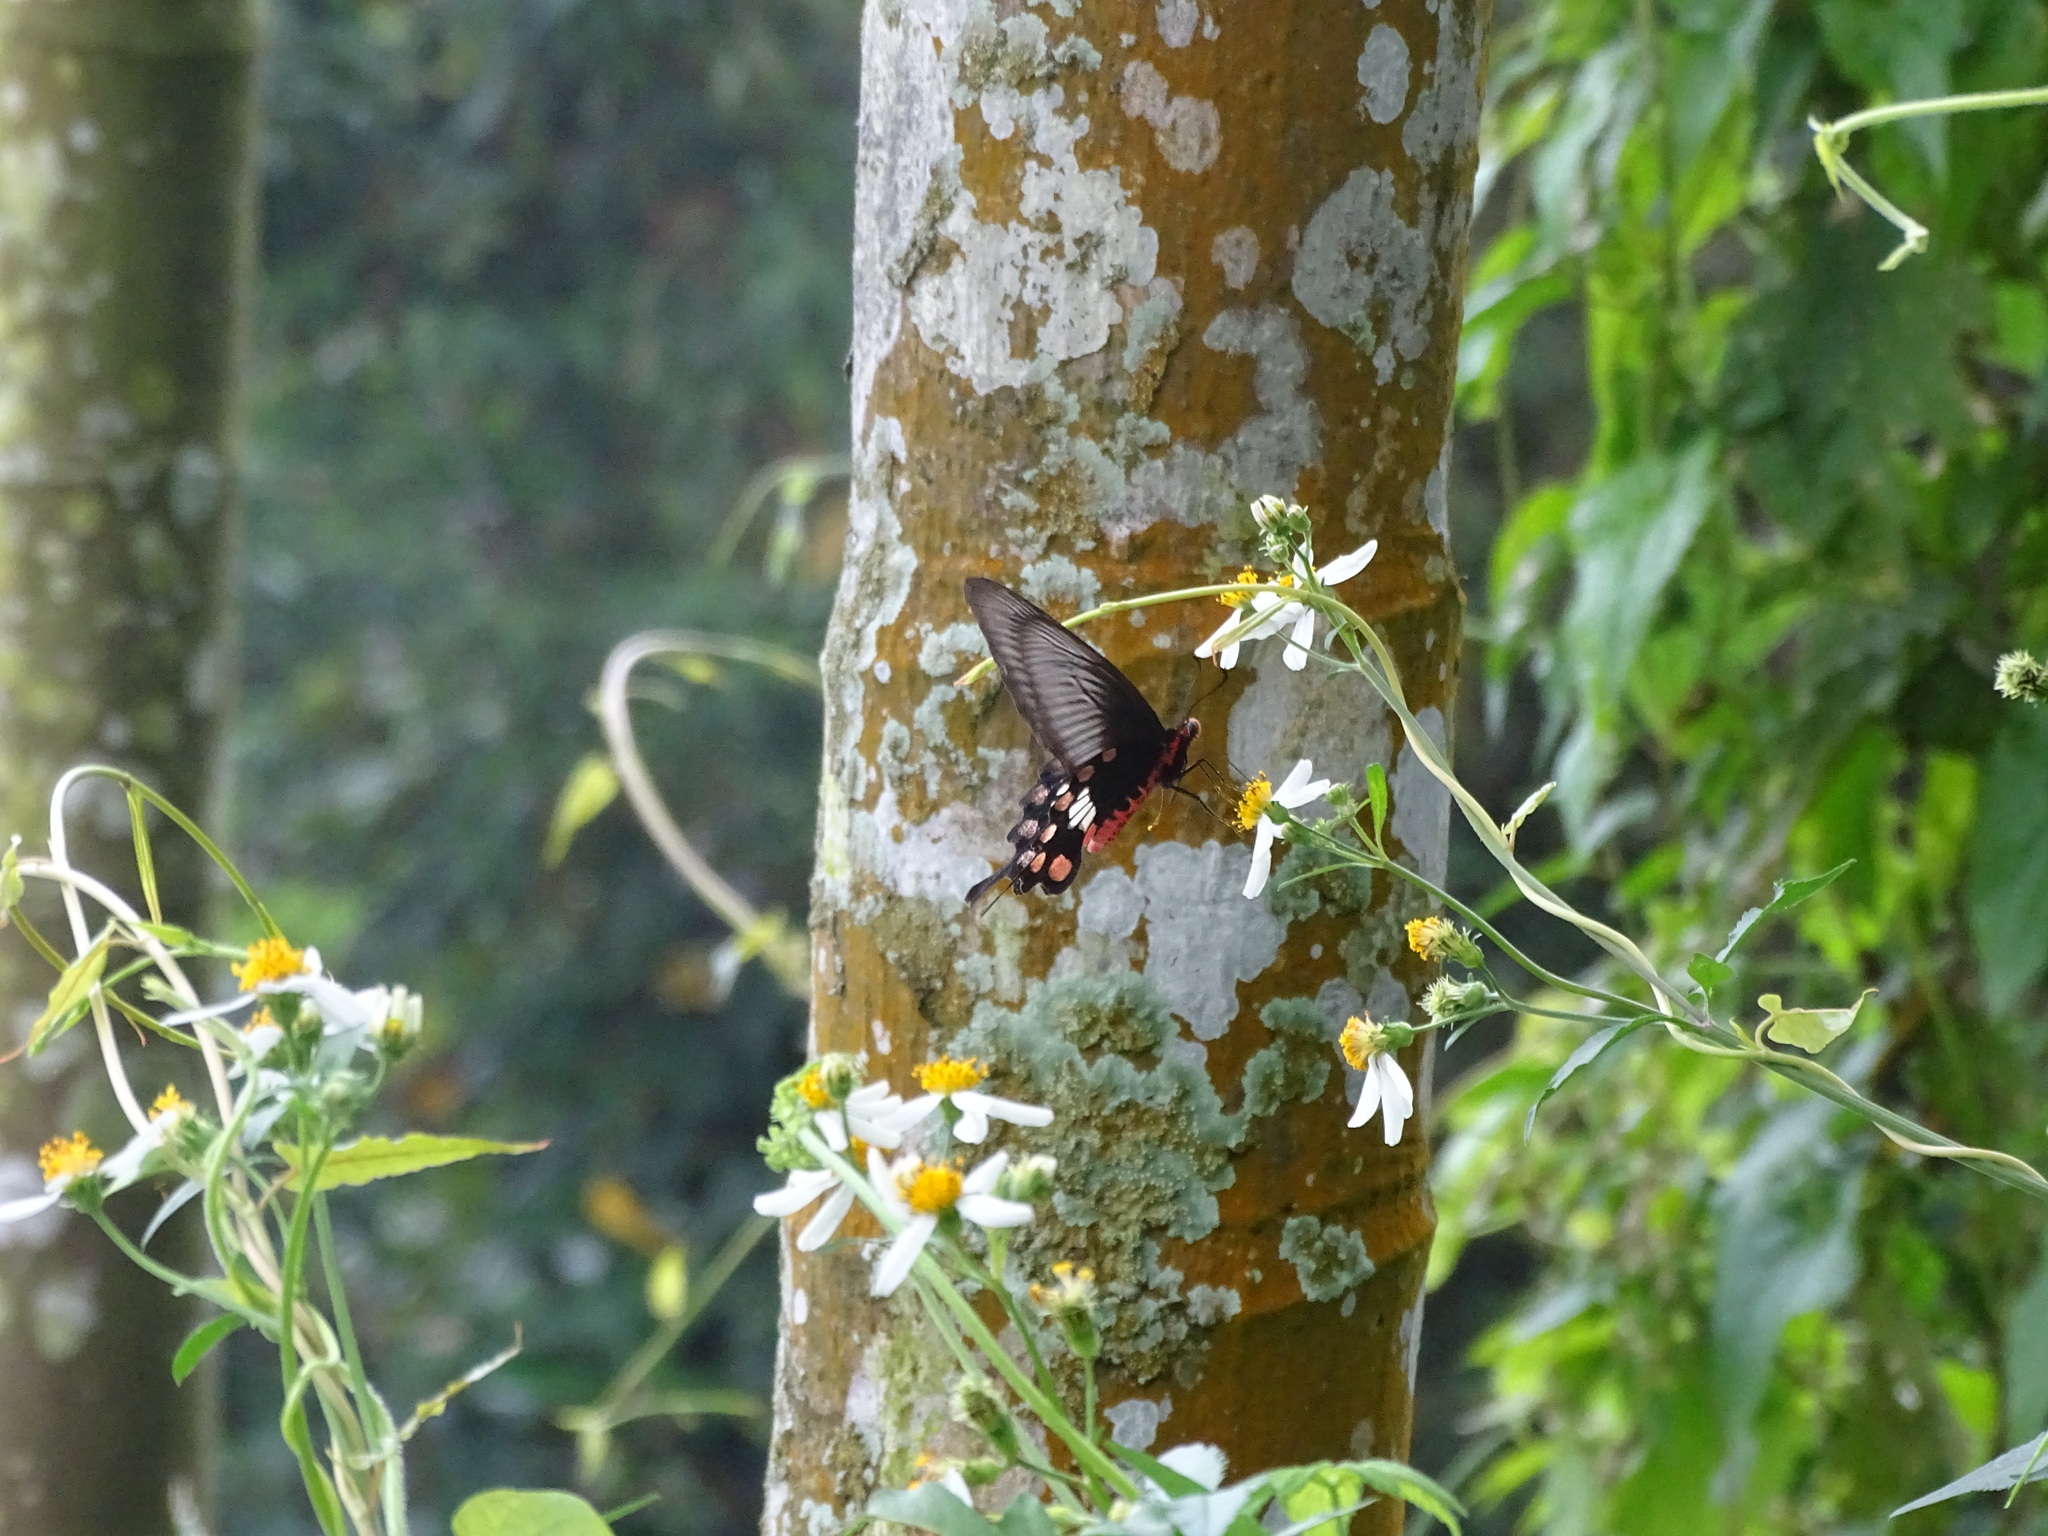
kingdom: Animalia
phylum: Arthropoda
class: Insecta
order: Lepidoptera
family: Papilionidae
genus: Pachliopta
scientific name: Pachliopta aristolochiae
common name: Common rose
